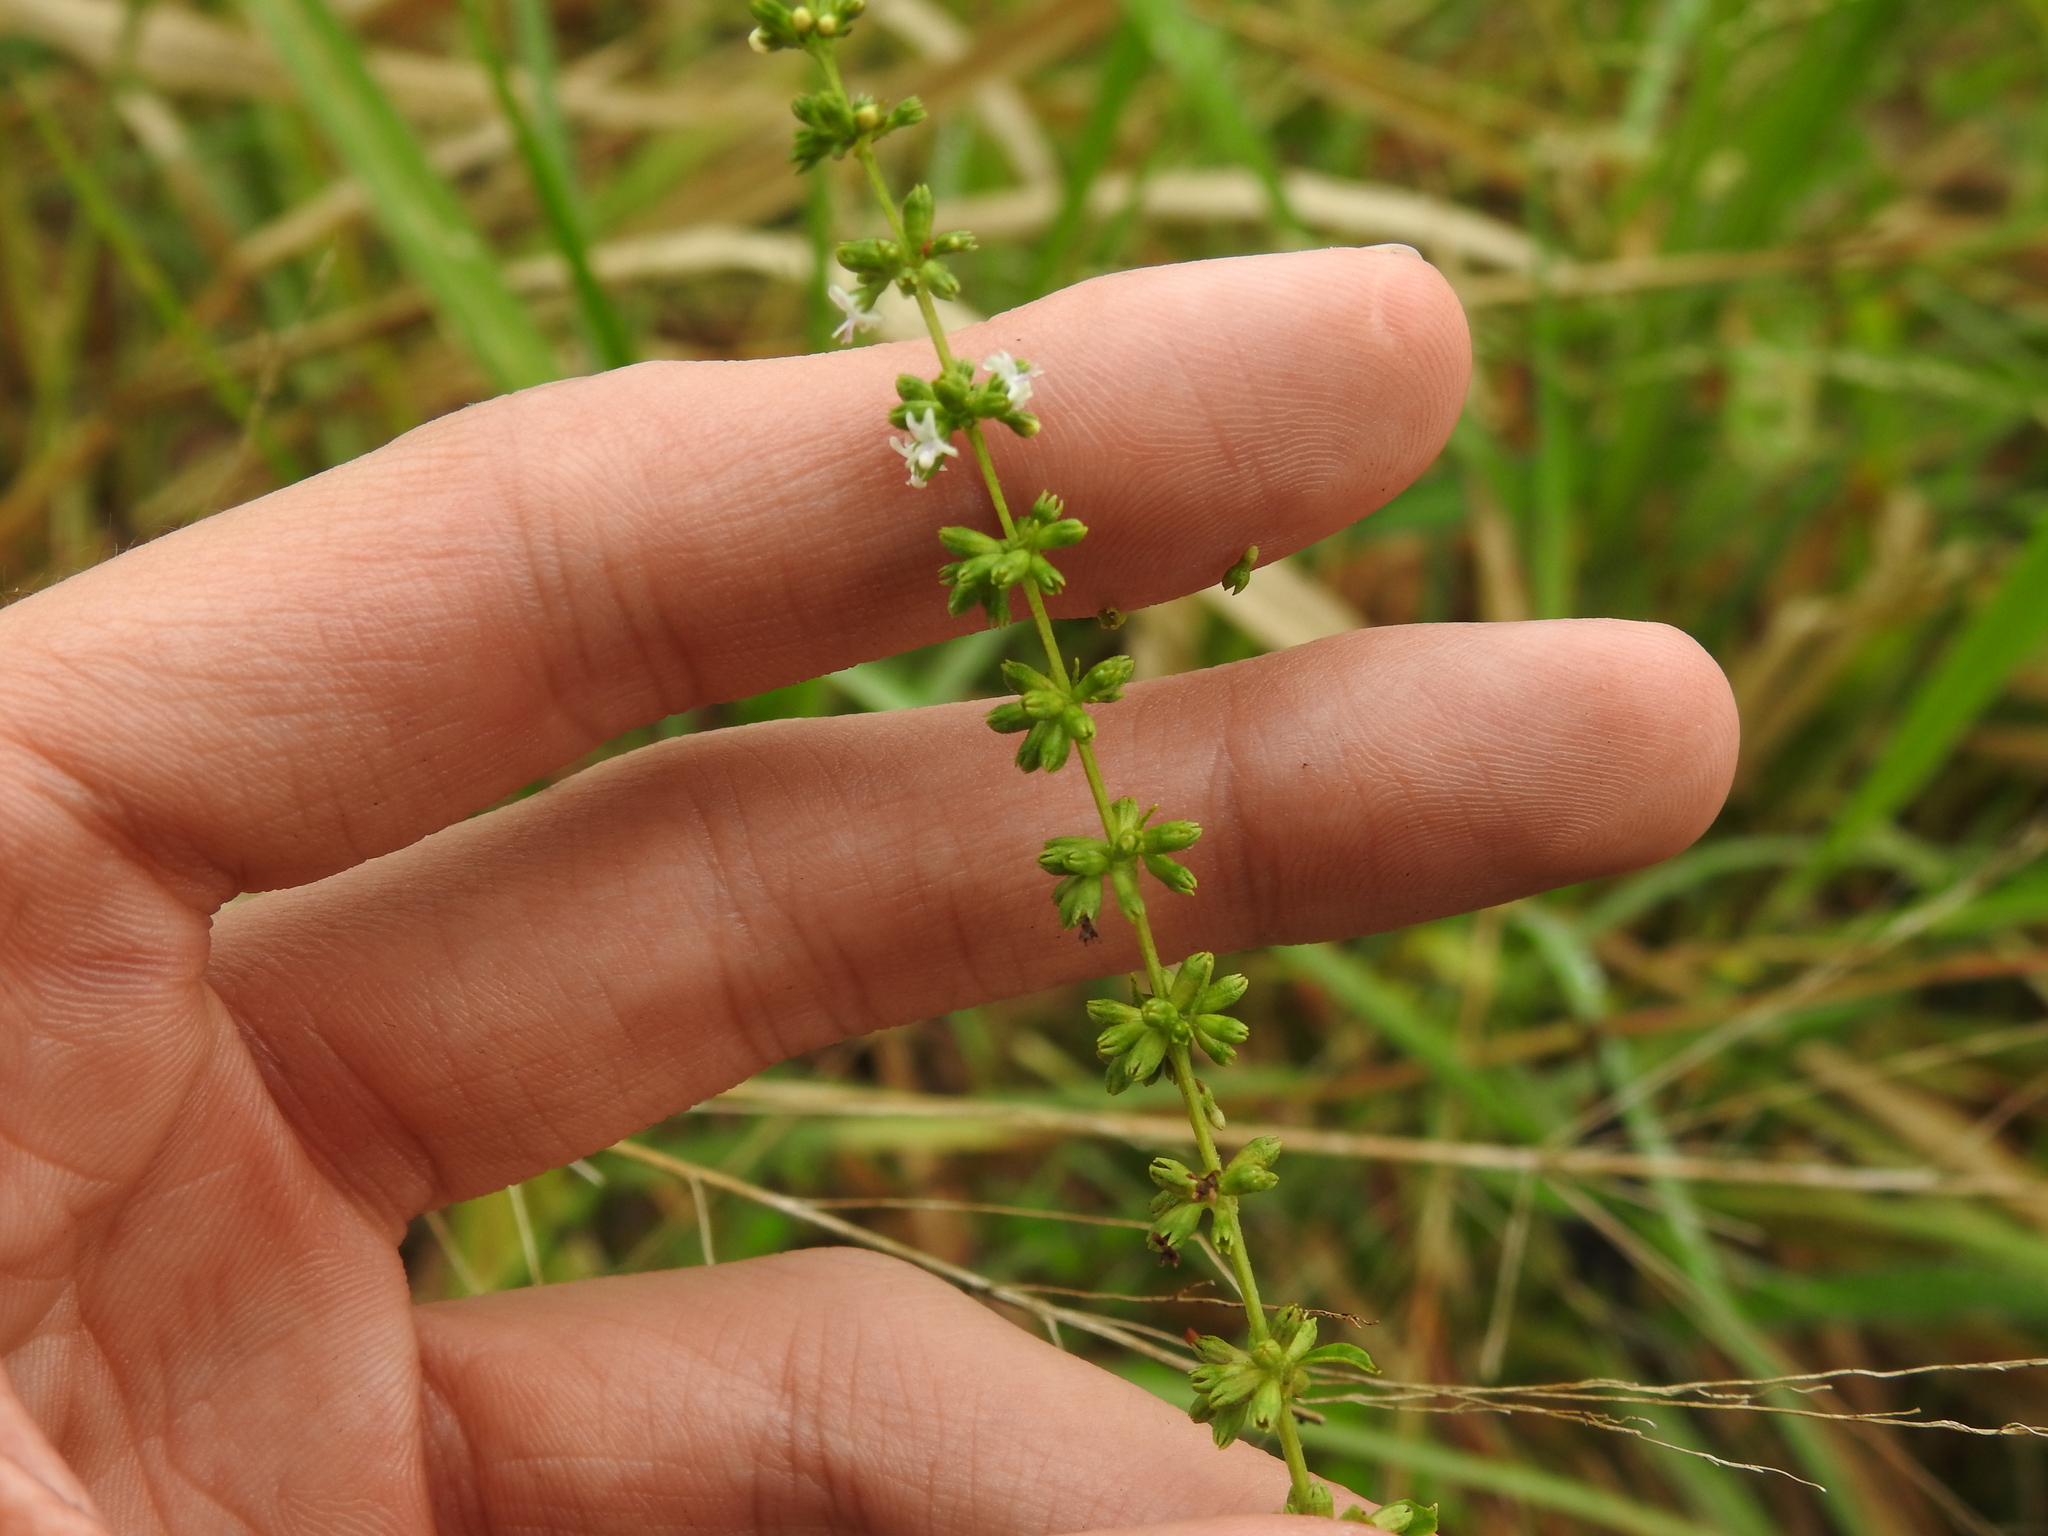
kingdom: Plantae
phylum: Tracheophyta
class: Magnoliopsida
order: Lamiales
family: Lamiaceae
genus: Condea
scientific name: Condea verticillata
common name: John charles
